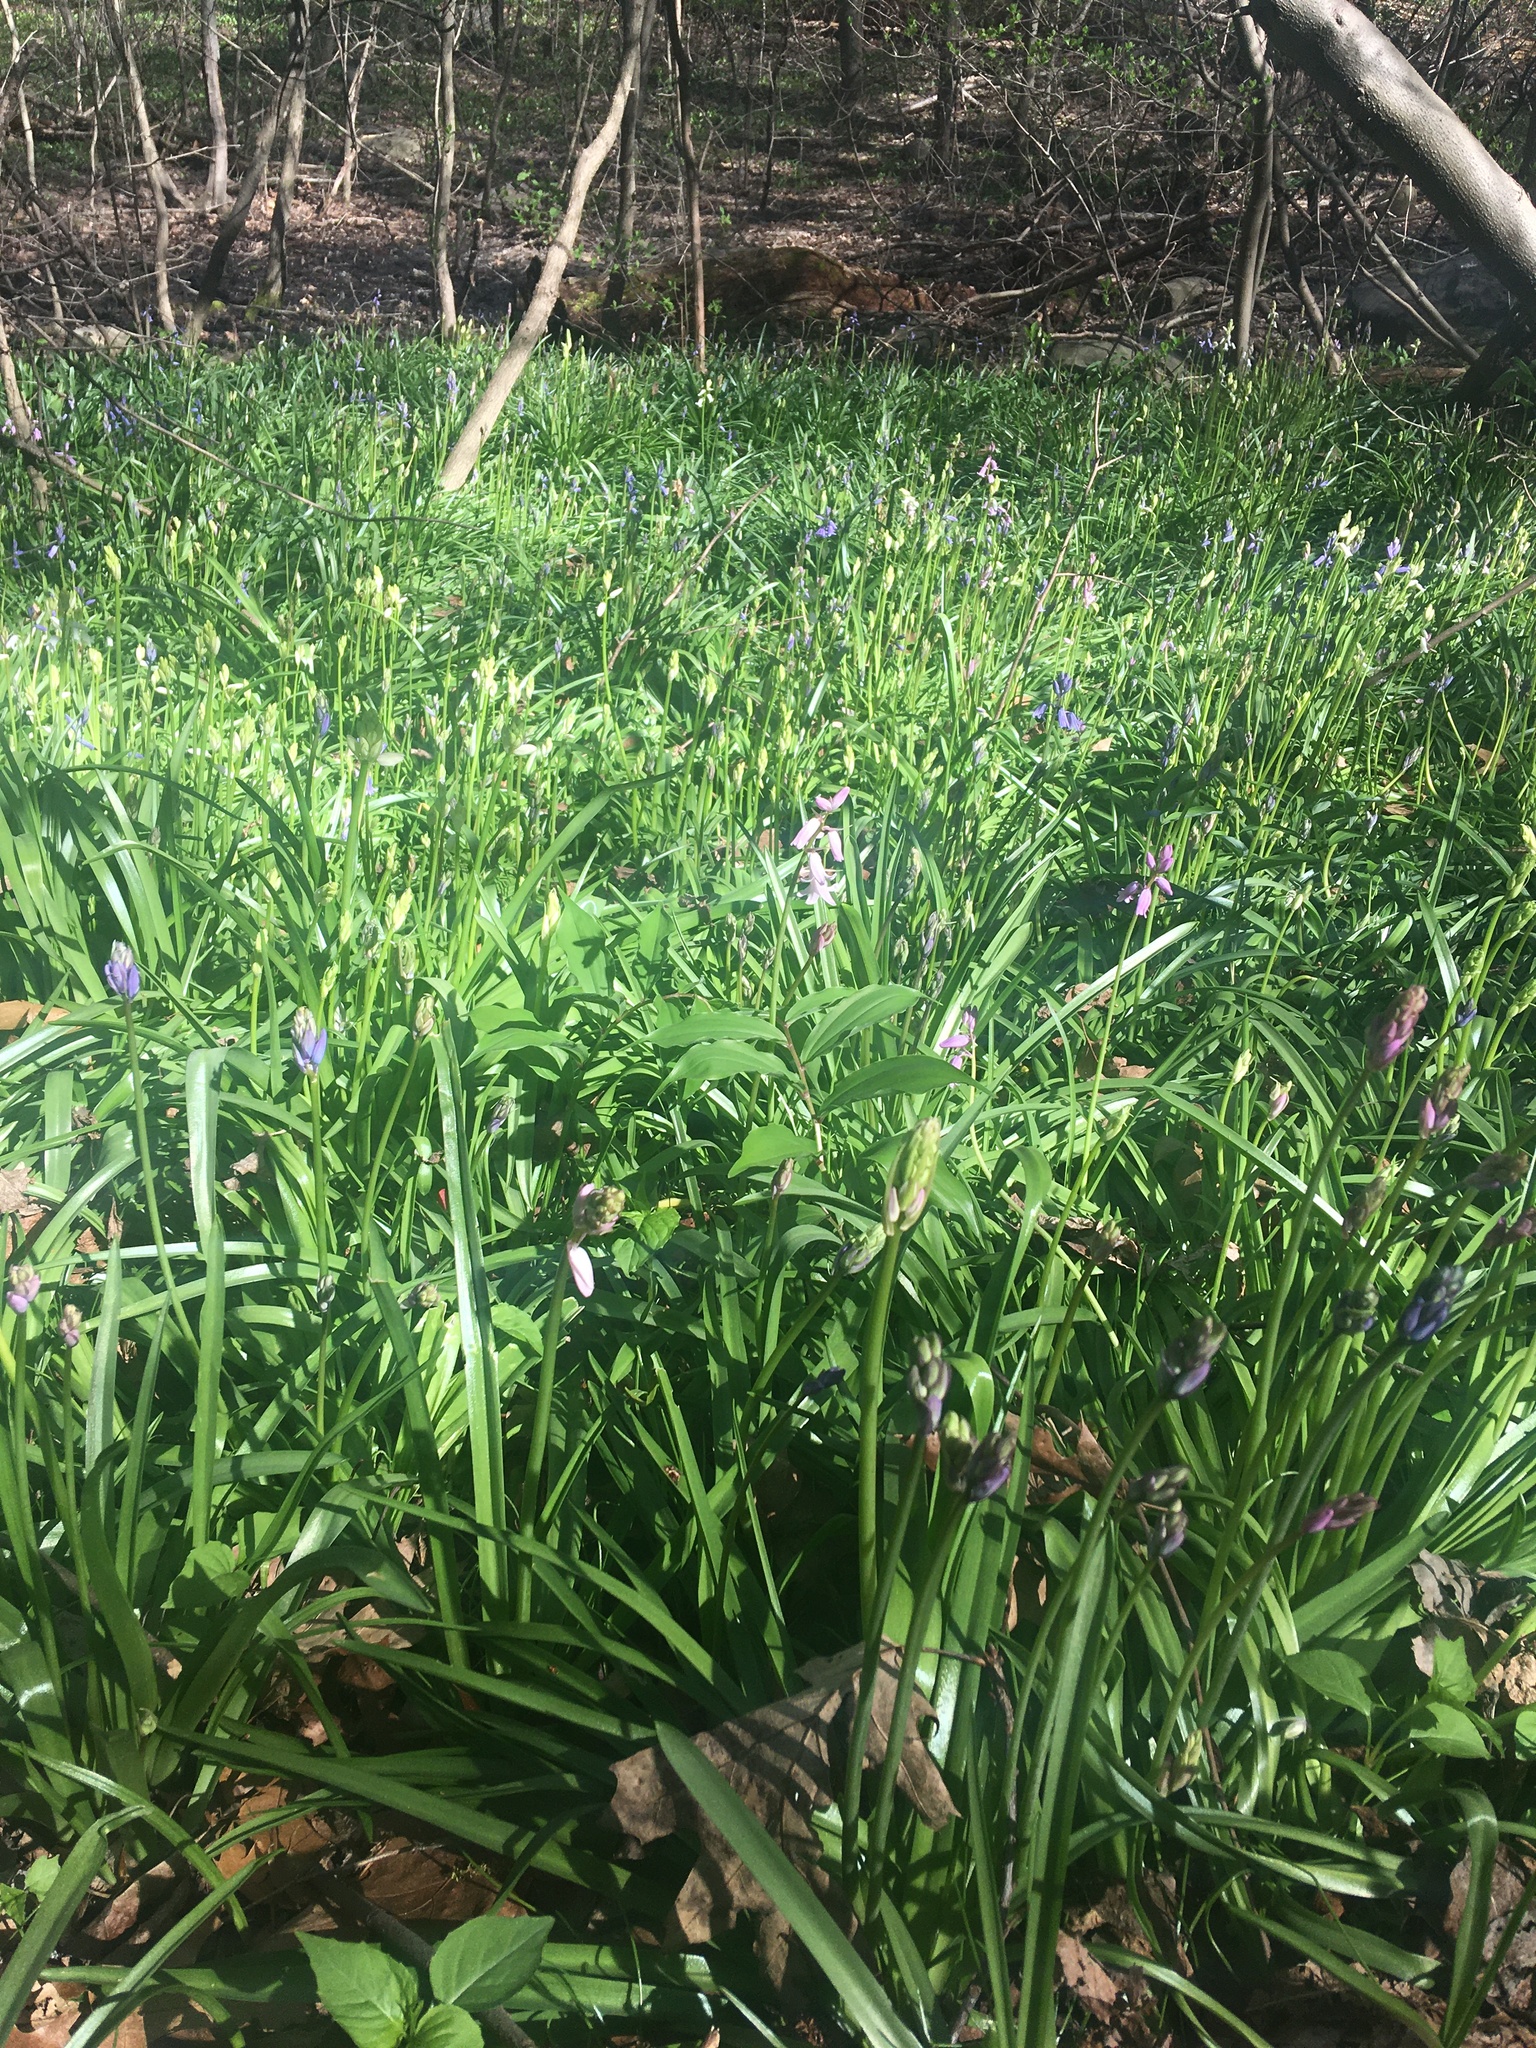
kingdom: Plantae
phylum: Tracheophyta
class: Liliopsida
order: Asparagales
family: Asparagaceae
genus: Hyacinthoides
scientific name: Hyacinthoides hispanica
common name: Spanish bluebell
